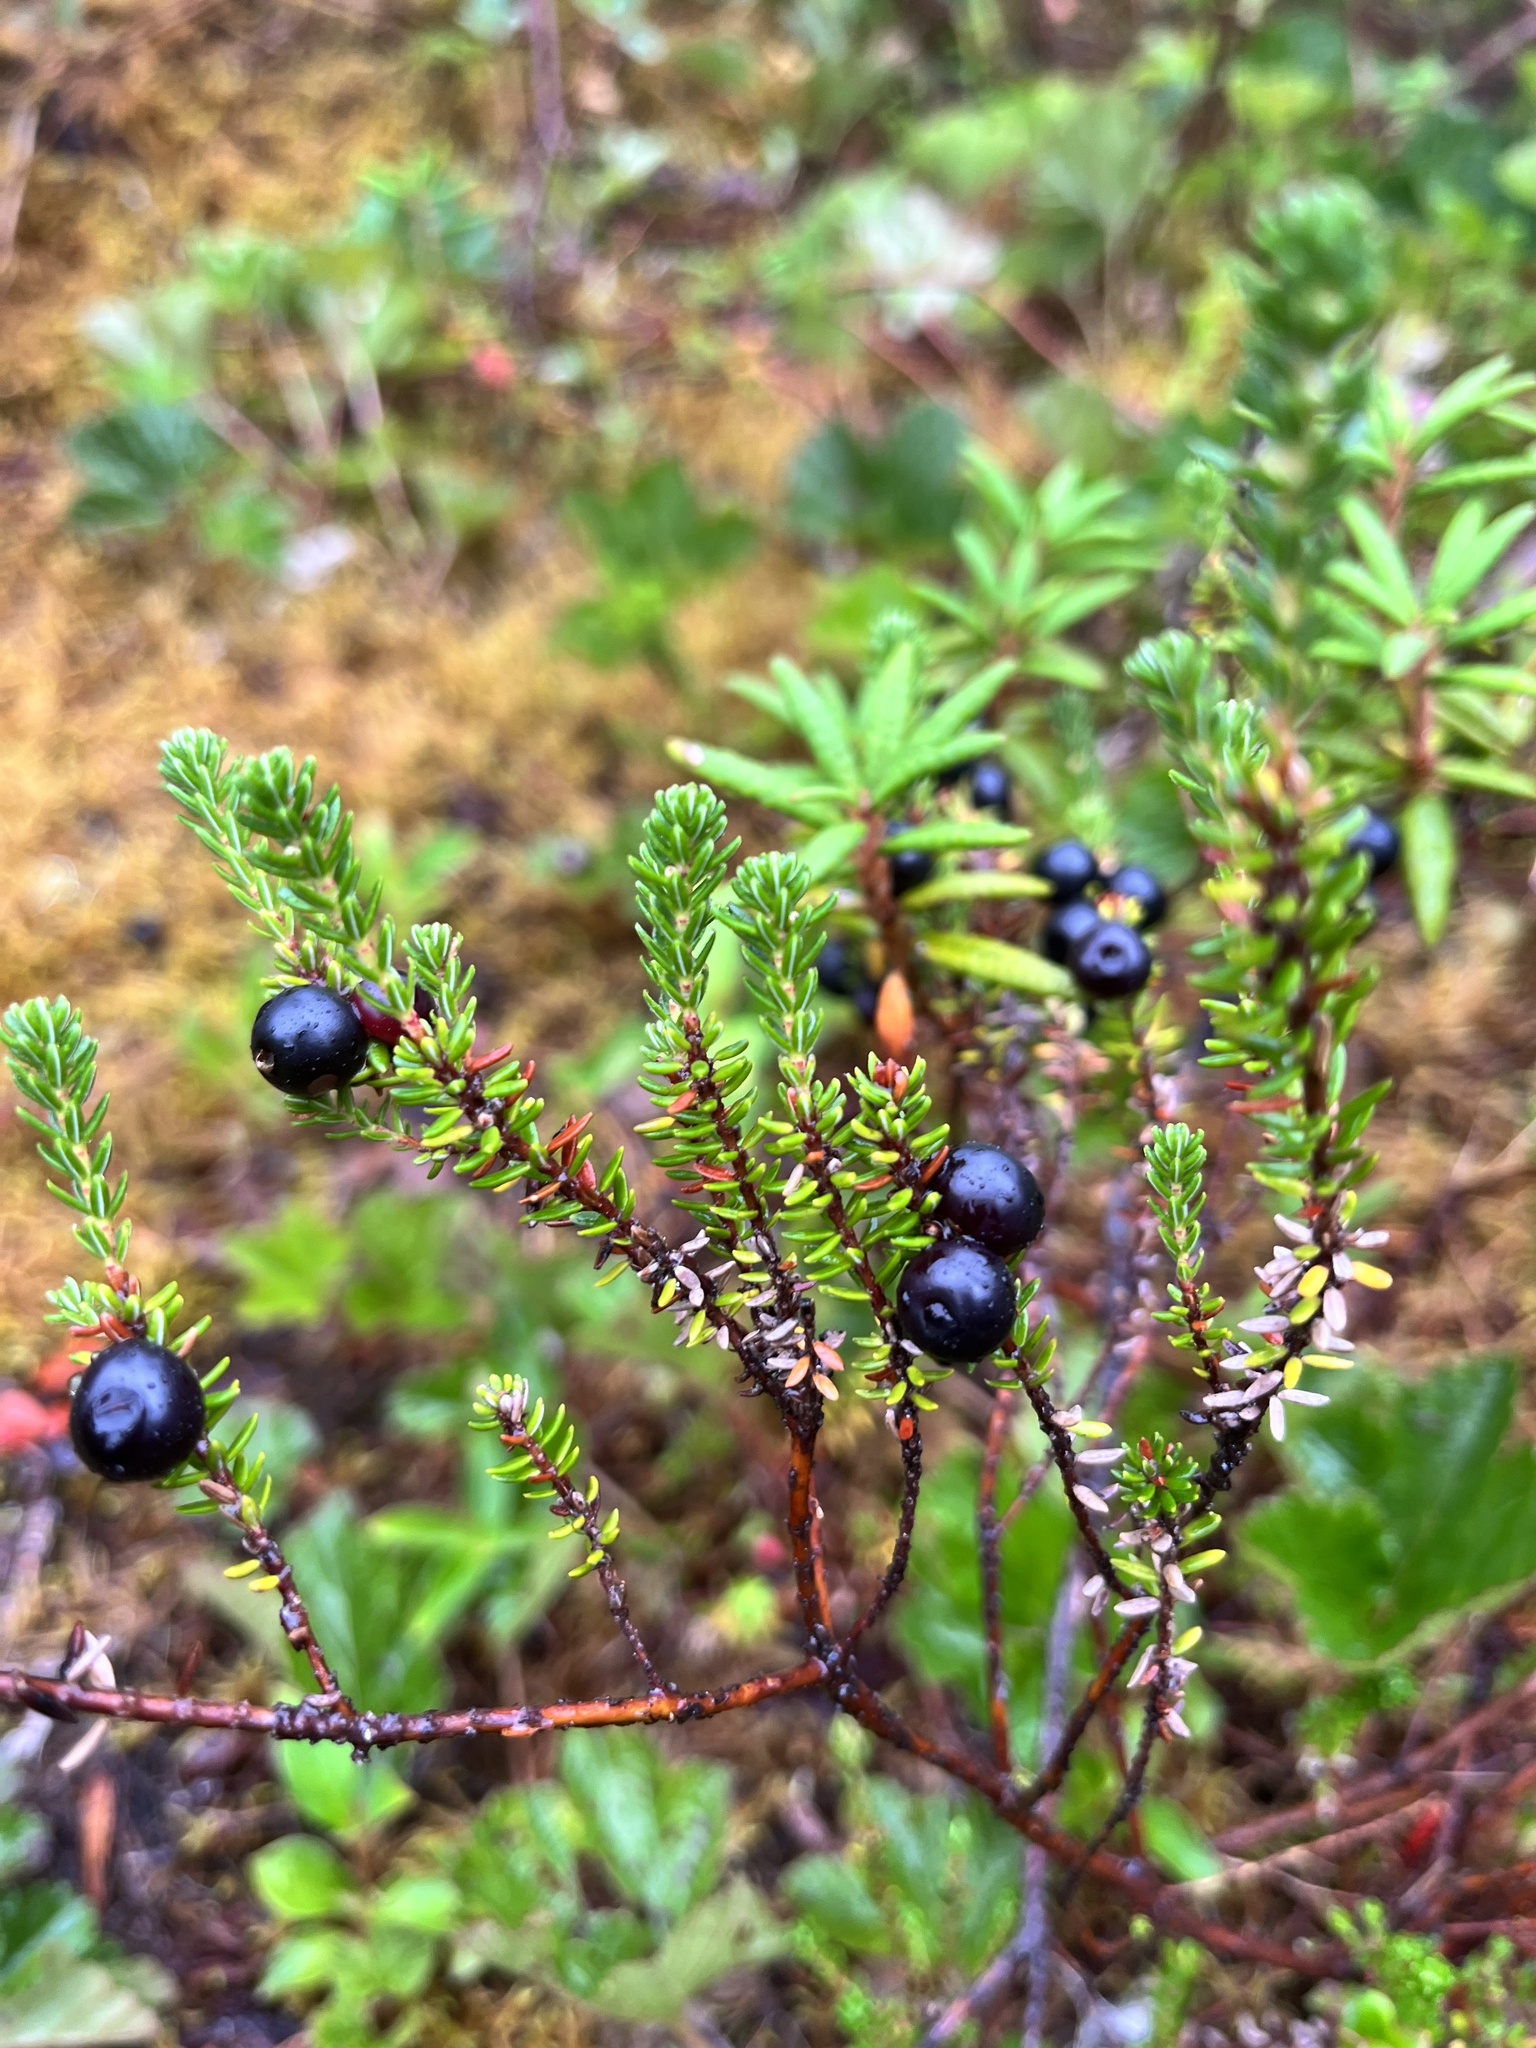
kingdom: Plantae
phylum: Tracheophyta
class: Magnoliopsida
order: Ericales
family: Ericaceae
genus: Empetrum
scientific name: Empetrum nigrum
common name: Black crowberry
